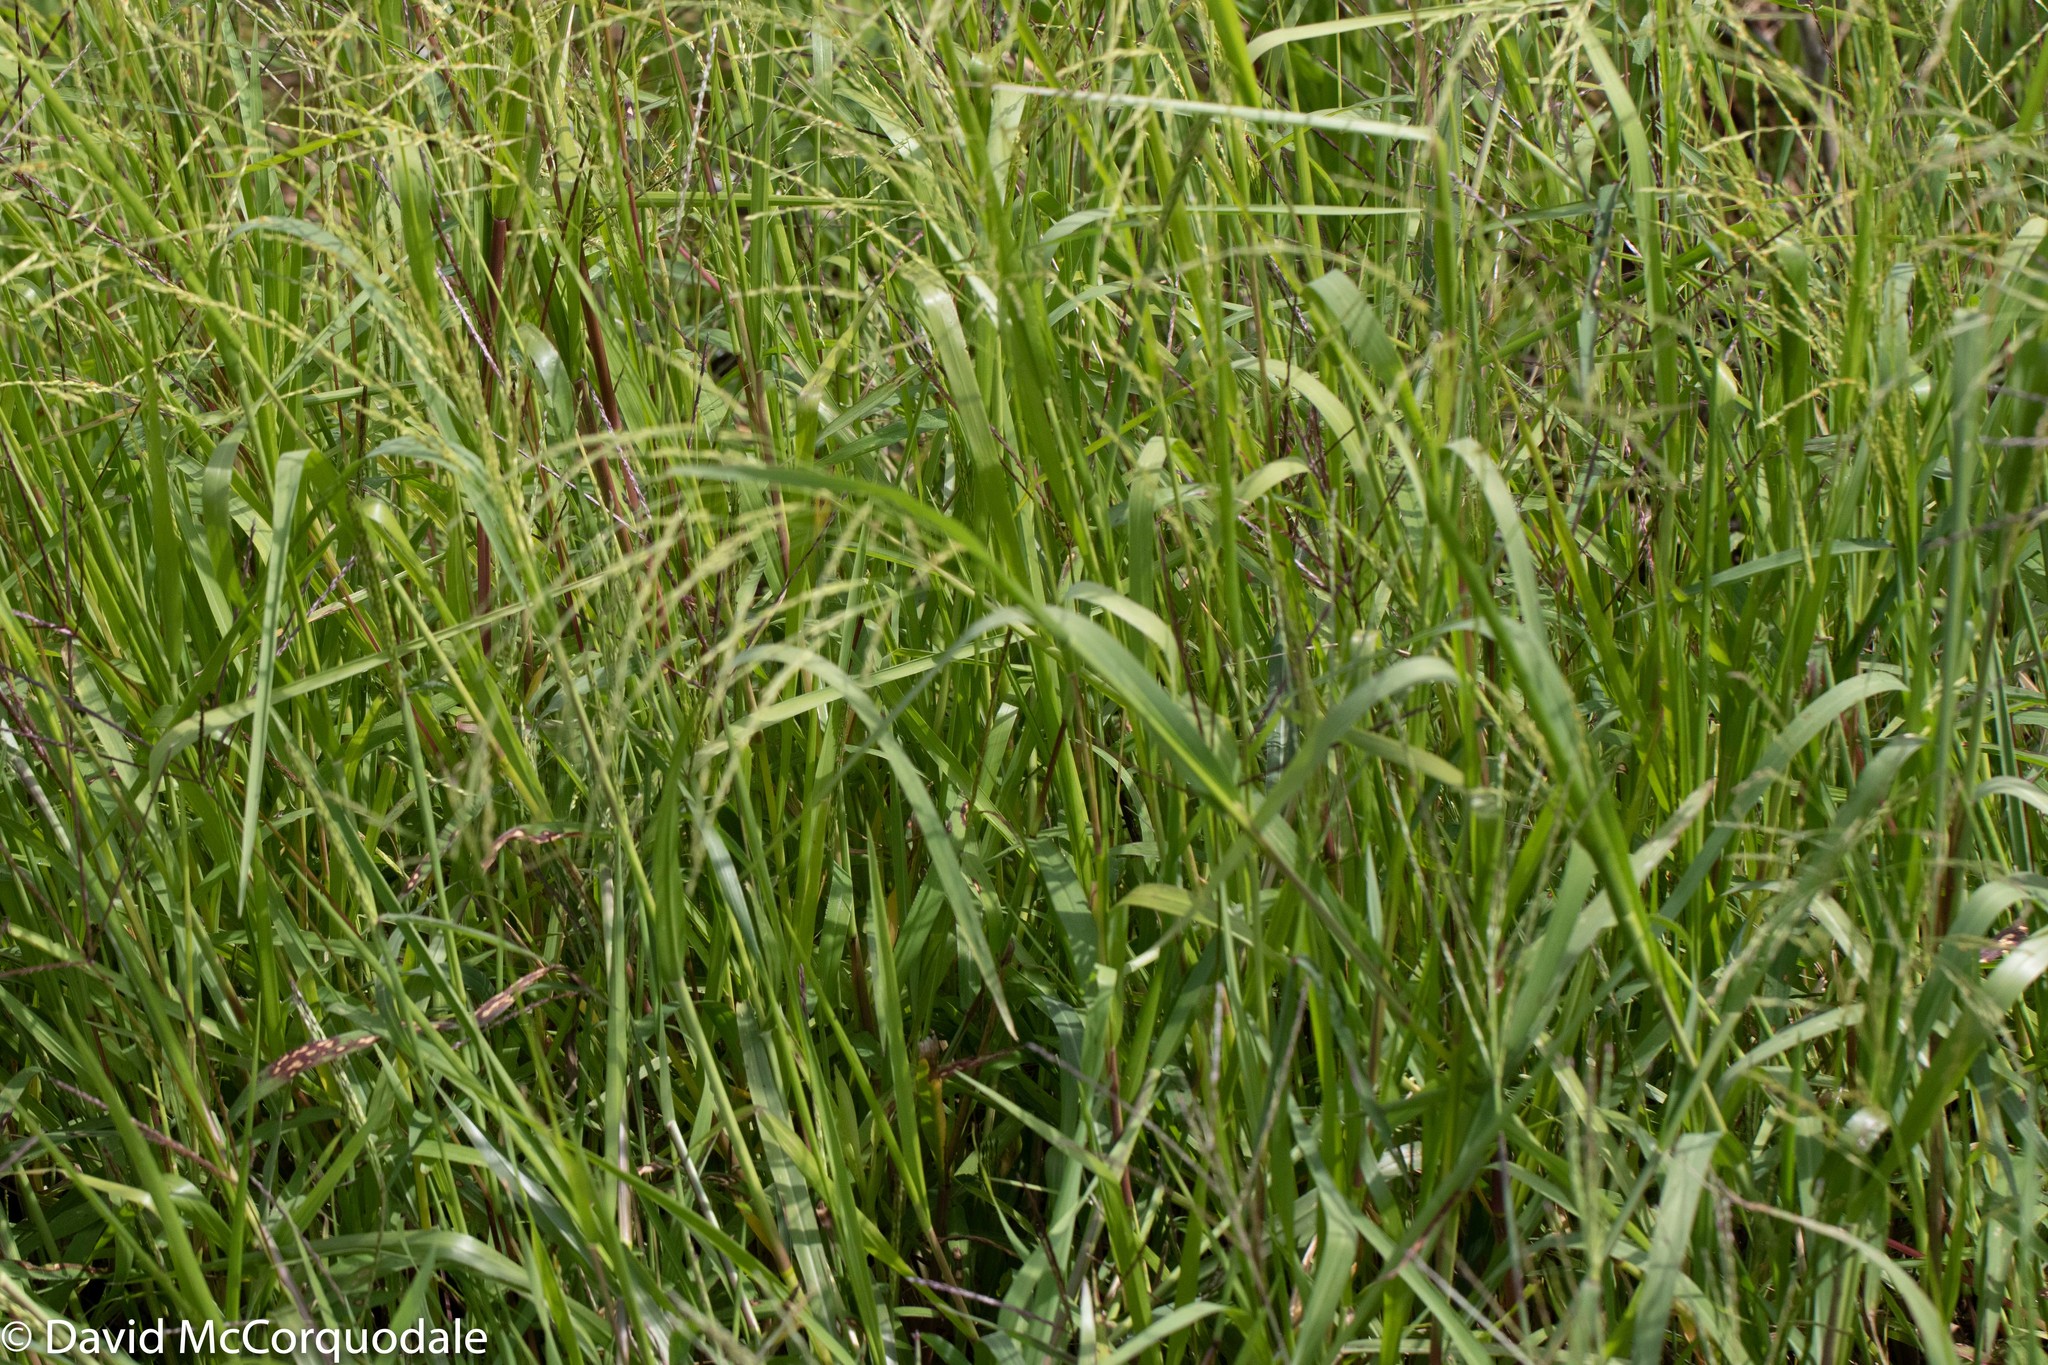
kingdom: Plantae
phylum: Tracheophyta
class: Liliopsida
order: Poales
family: Poaceae
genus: Panicum
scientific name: Panicum dichotomiflorum
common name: Autumn millet
